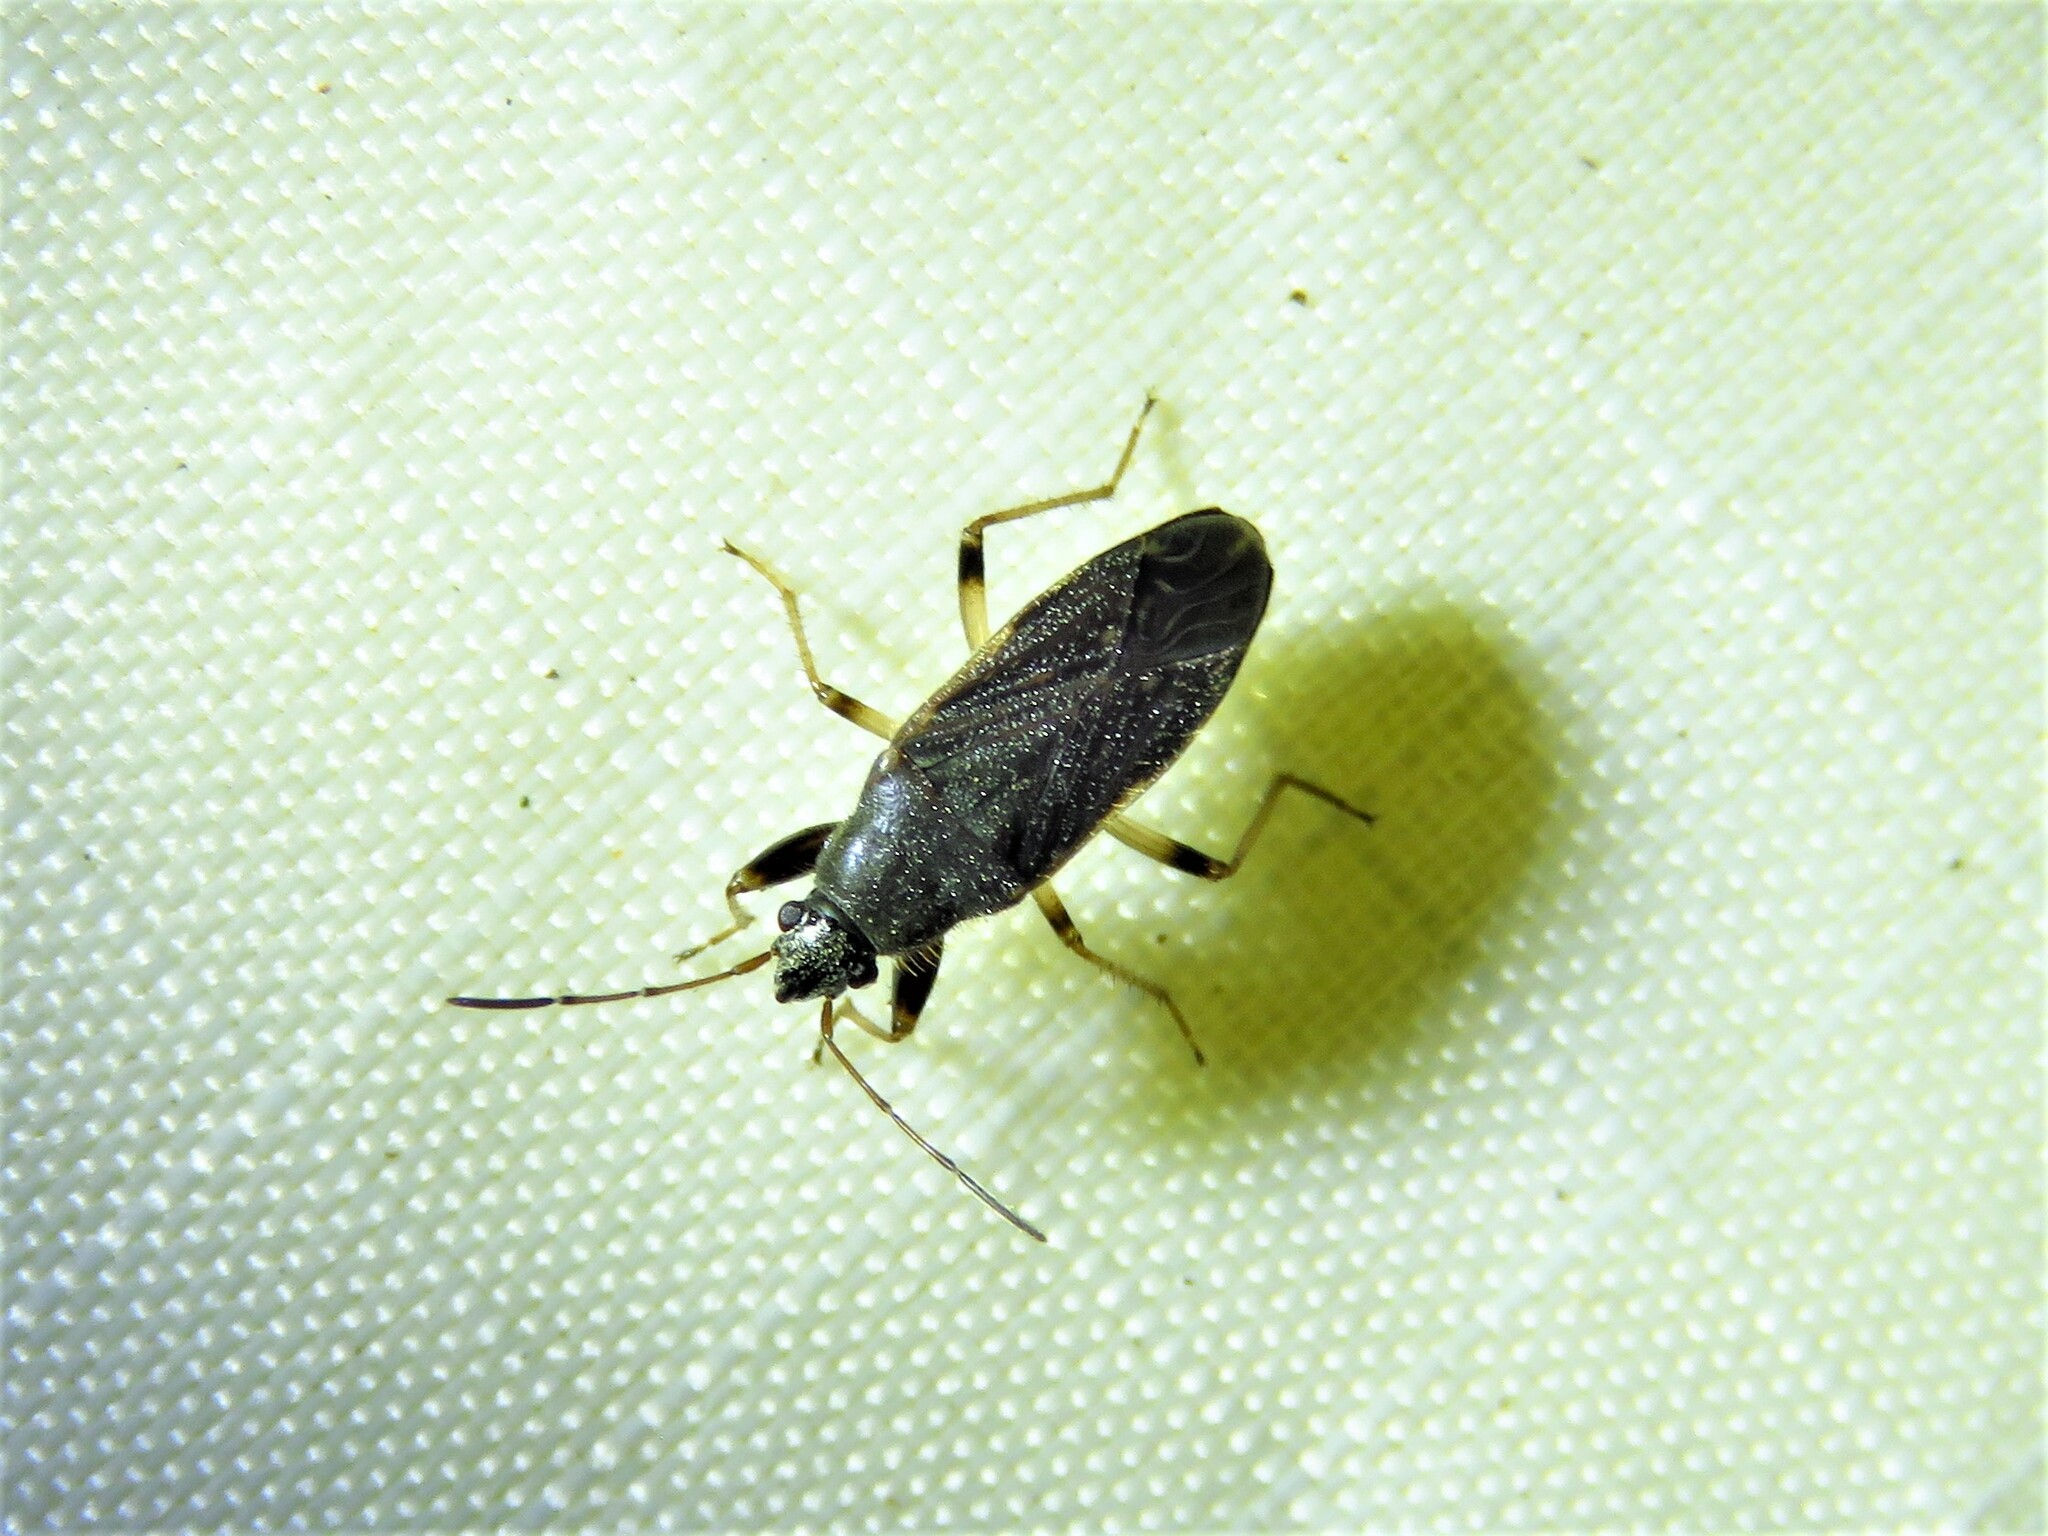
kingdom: Animalia
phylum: Arthropoda
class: Insecta
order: Hemiptera
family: Rhyparochromidae
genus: Perigenes
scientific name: Perigenes similis
